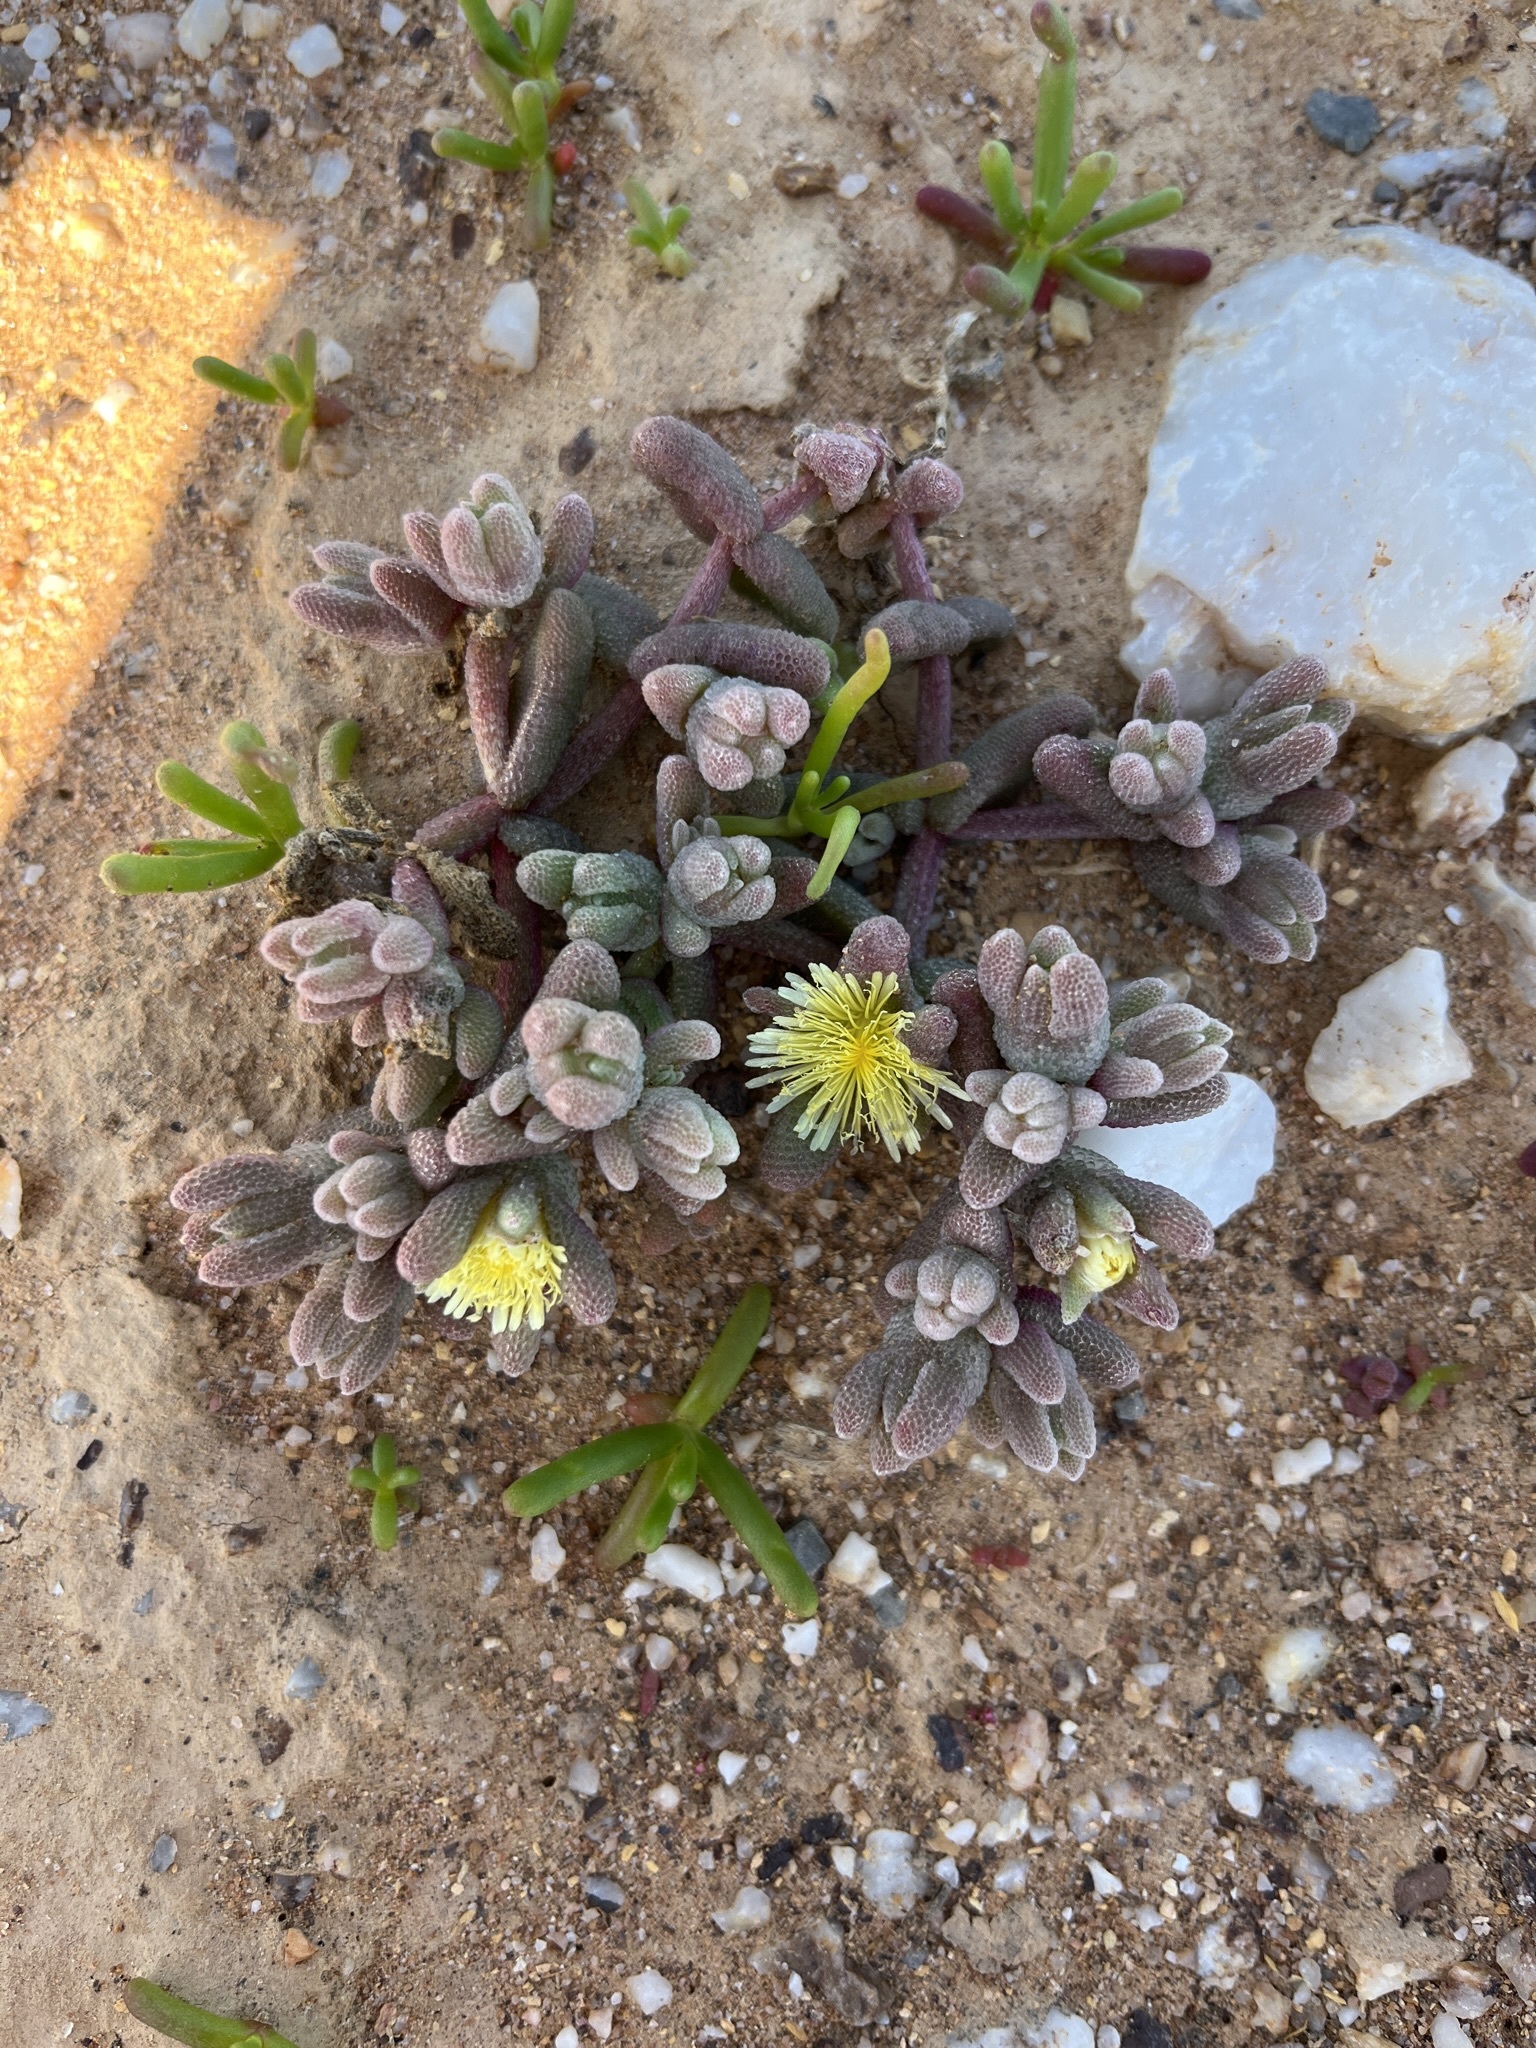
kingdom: Plantae
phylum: Tracheophyta
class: Magnoliopsida
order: Caryophyllales
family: Aizoaceae
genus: Mesembryanthemum
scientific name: Mesembryanthemum lilliputanum
